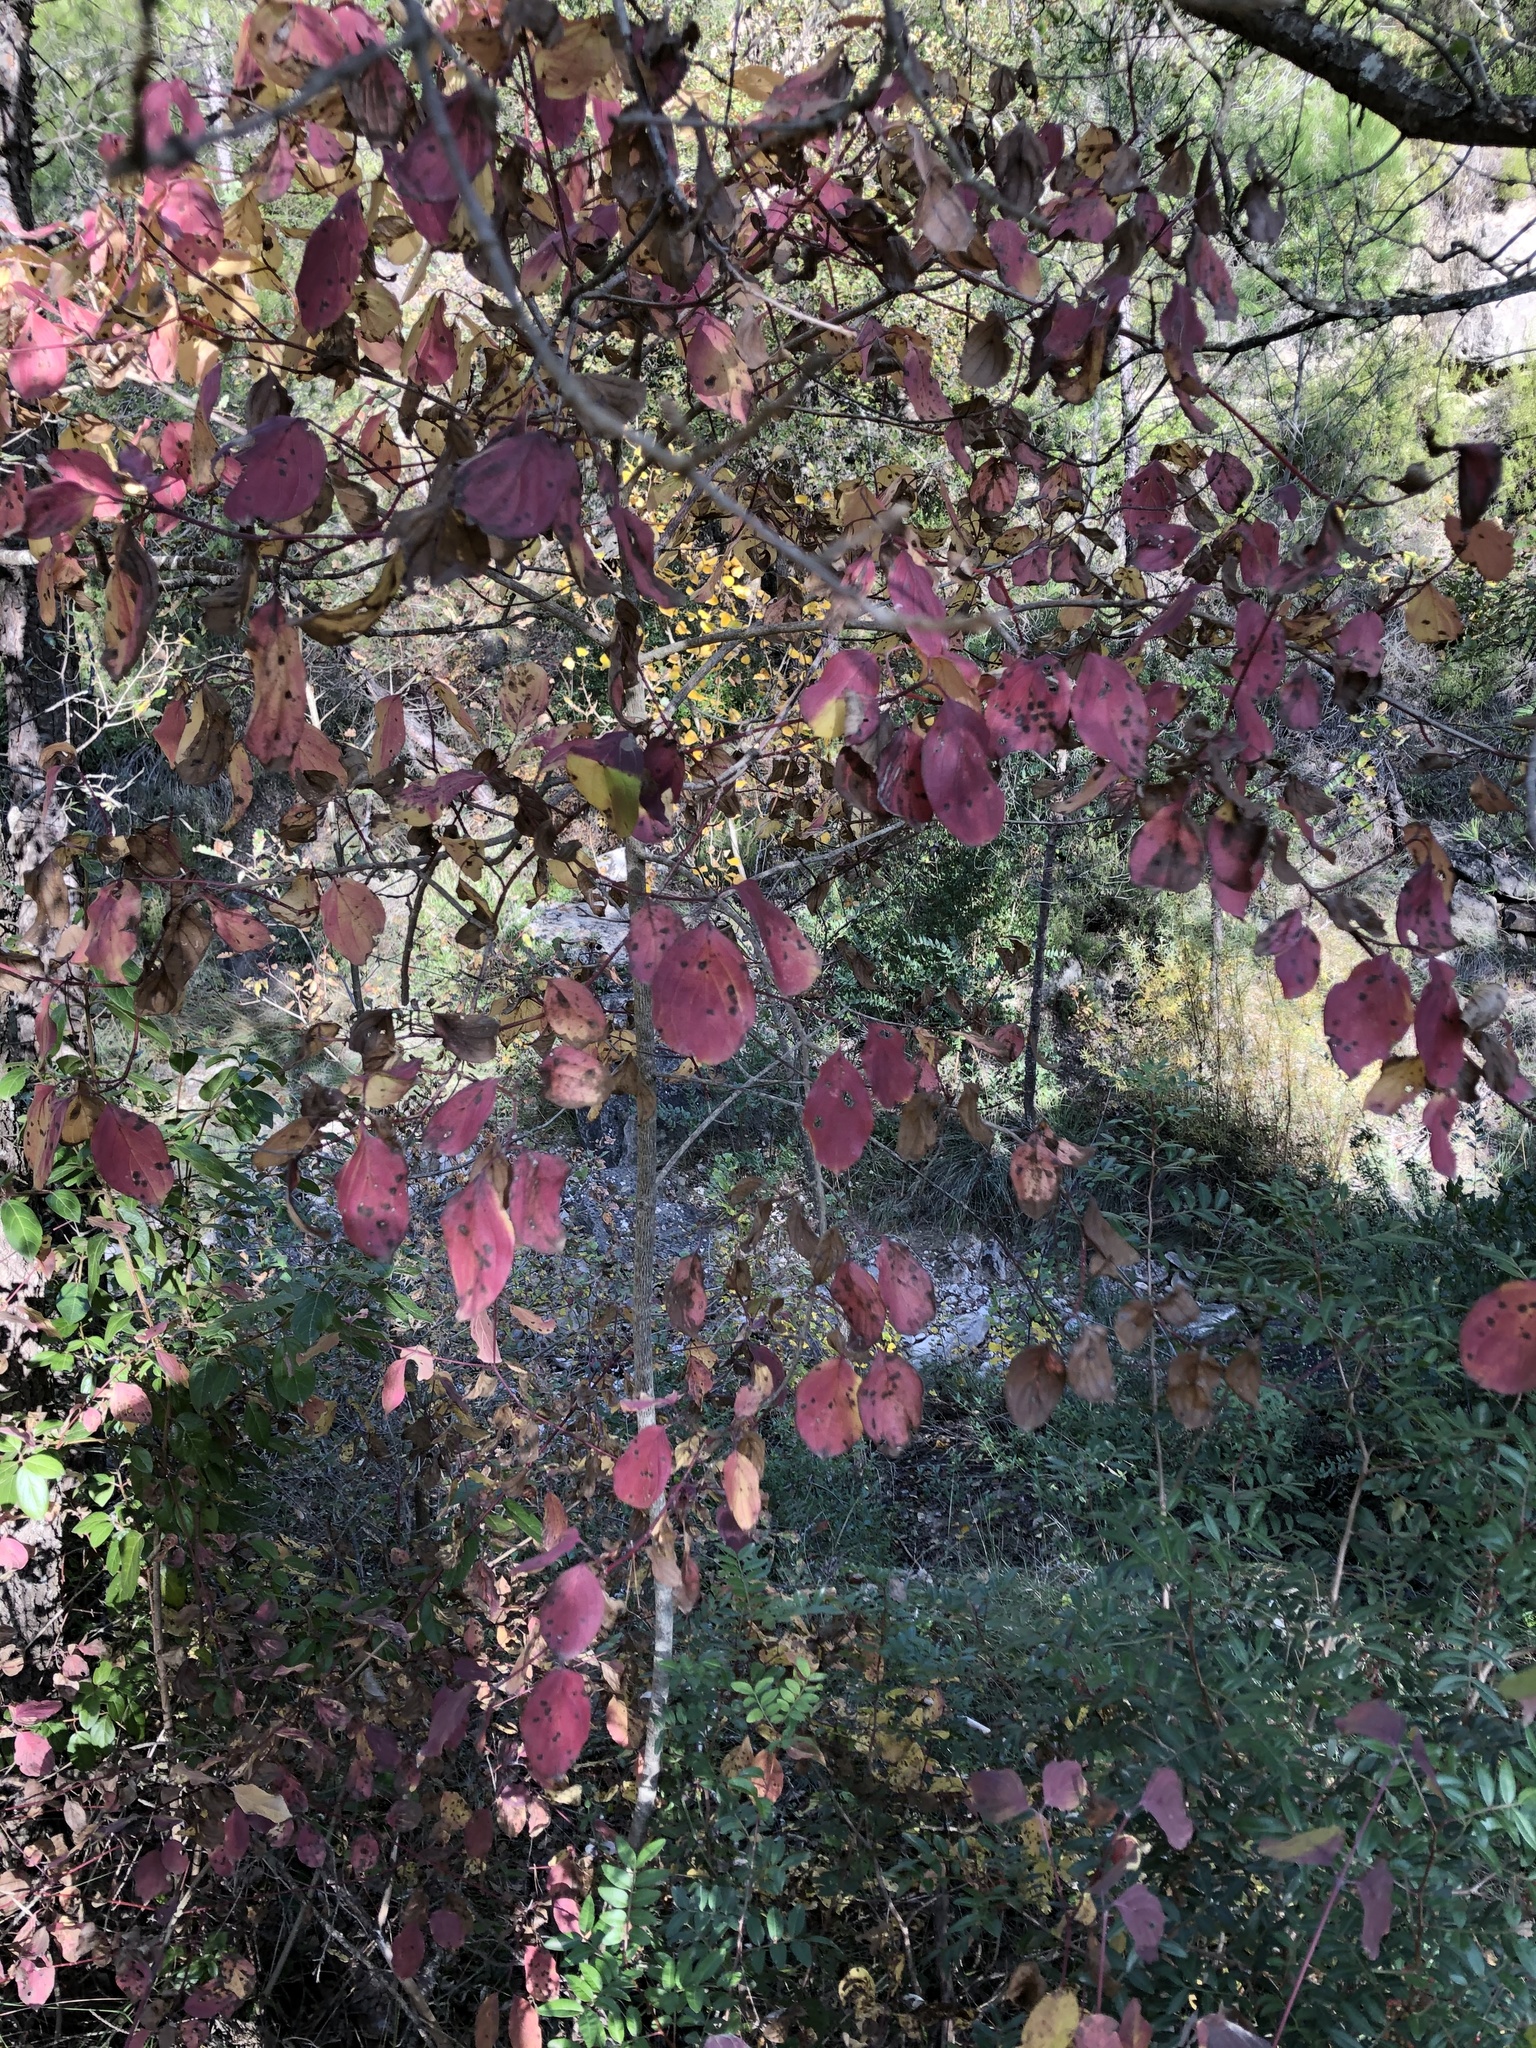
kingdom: Plantae
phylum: Tracheophyta
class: Magnoliopsida
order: Cornales
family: Cornaceae
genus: Cornus
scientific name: Cornus sanguinea
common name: Dogwood
